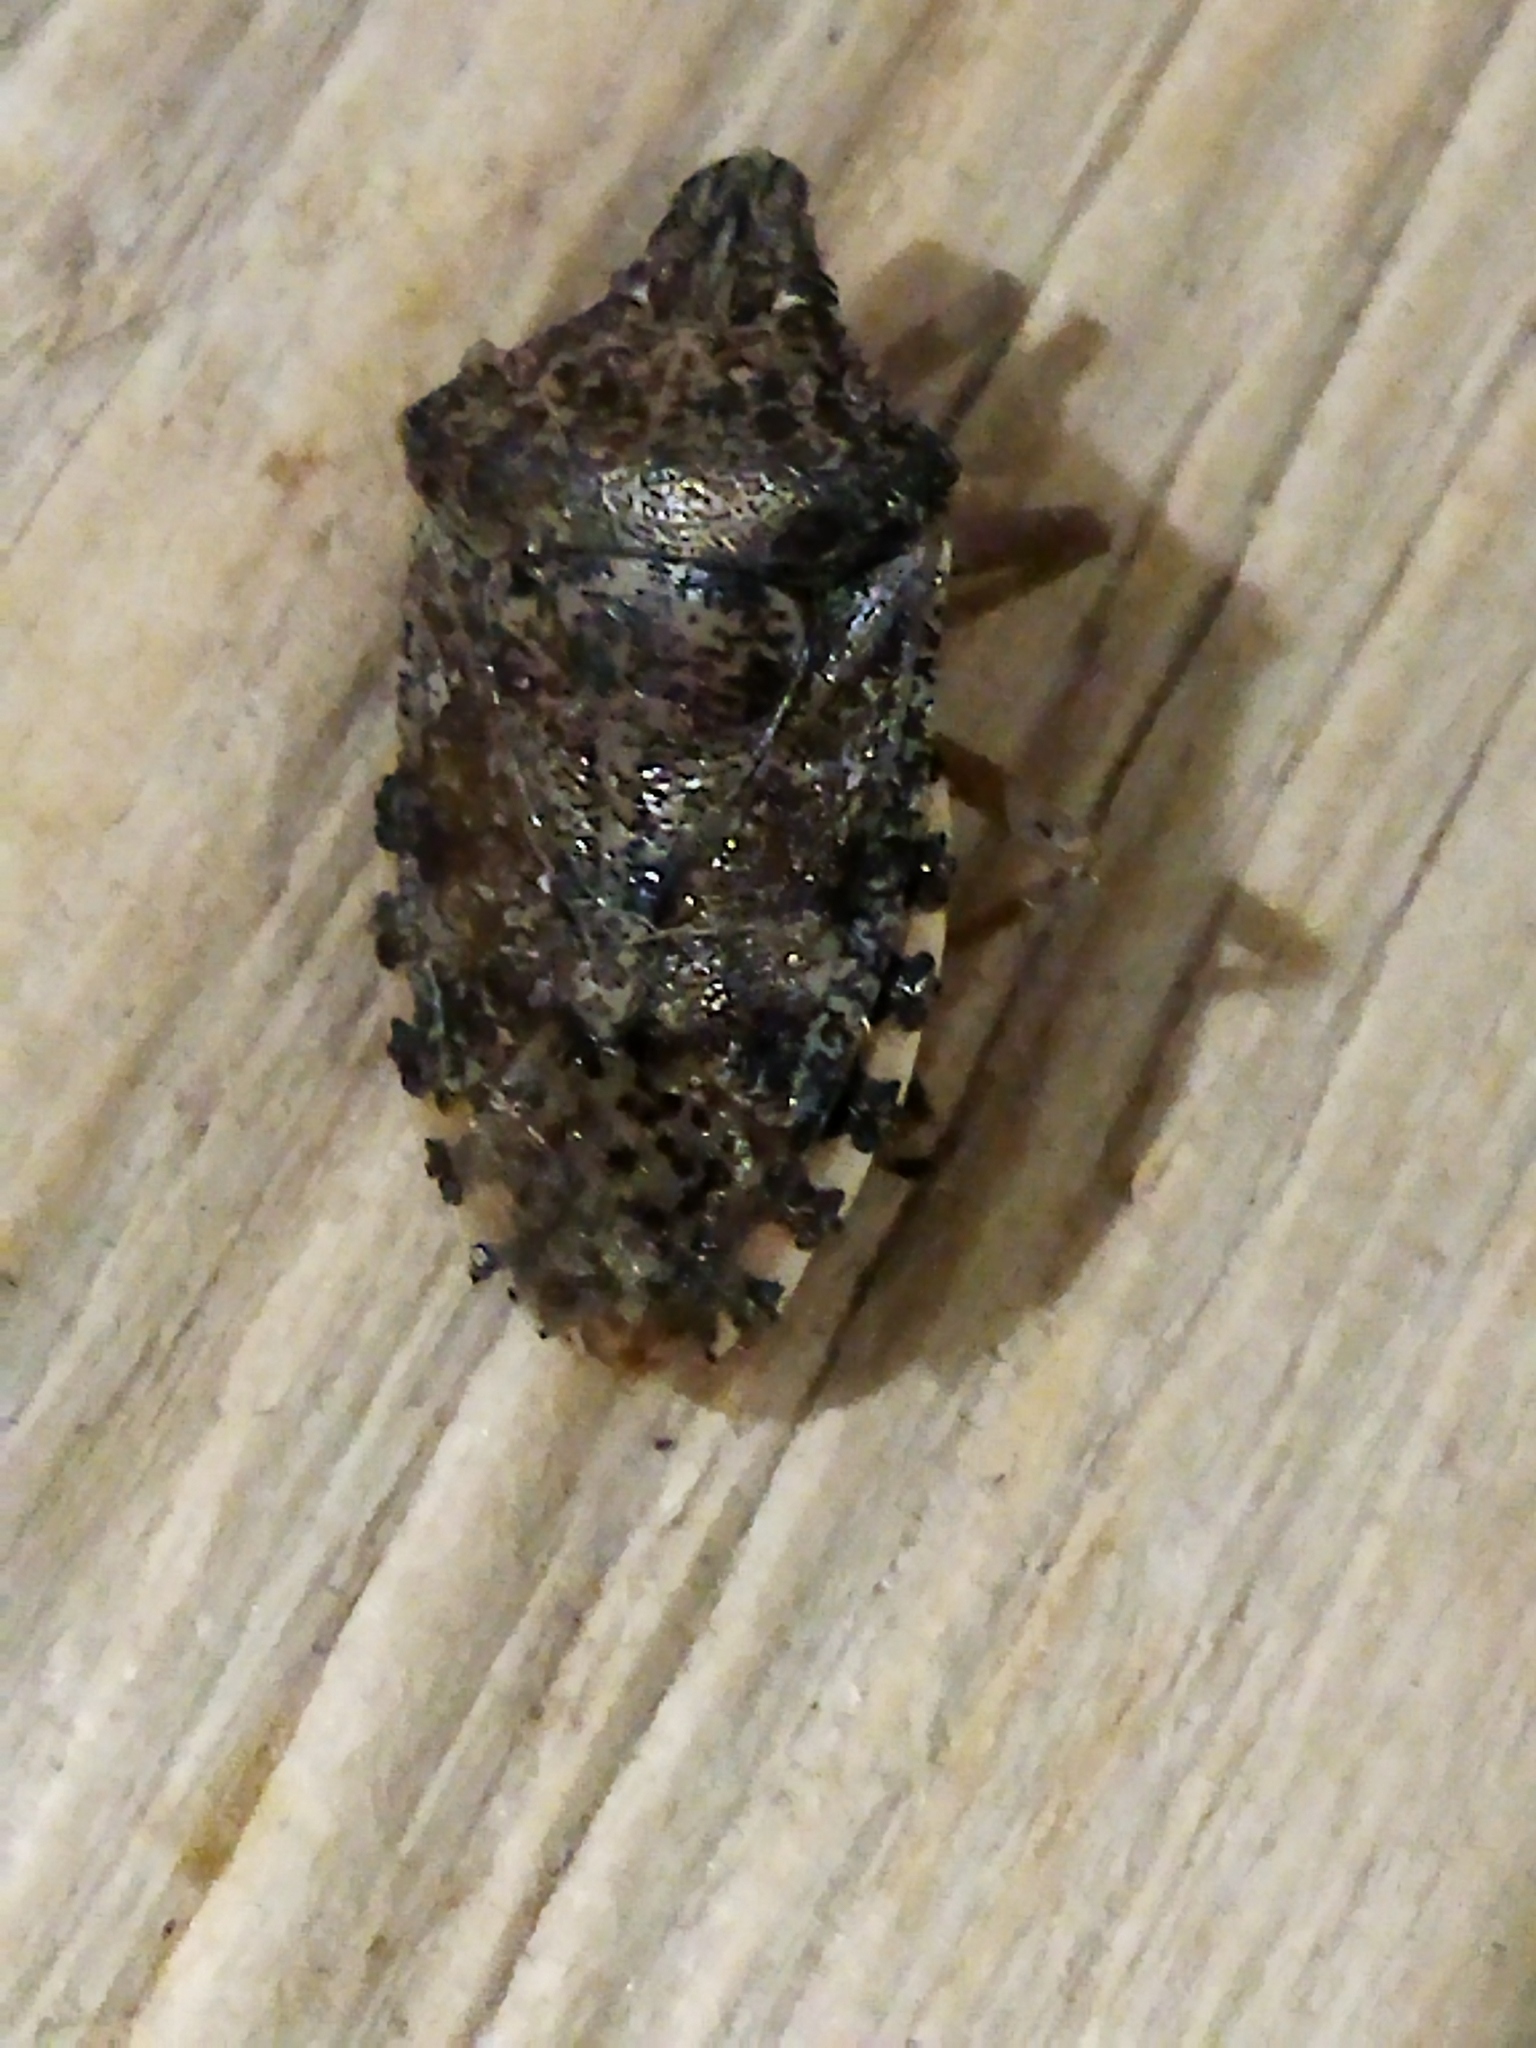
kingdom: Animalia
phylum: Arthropoda
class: Insecta
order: Hemiptera
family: Pentatomidae
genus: Rhaphigaster
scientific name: Rhaphigaster nebulosa
